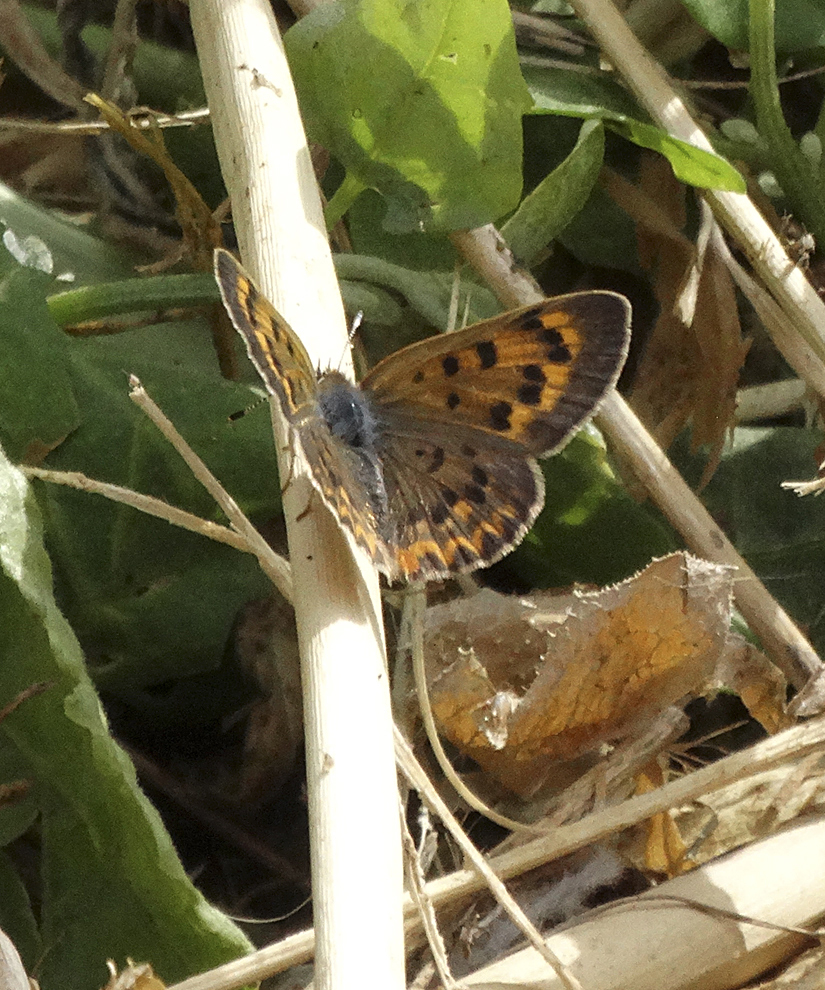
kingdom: Animalia
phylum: Arthropoda
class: Insecta
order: Lepidoptera
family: Lycaenidae
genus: Tharsalea
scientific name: Tharsalea helloides
